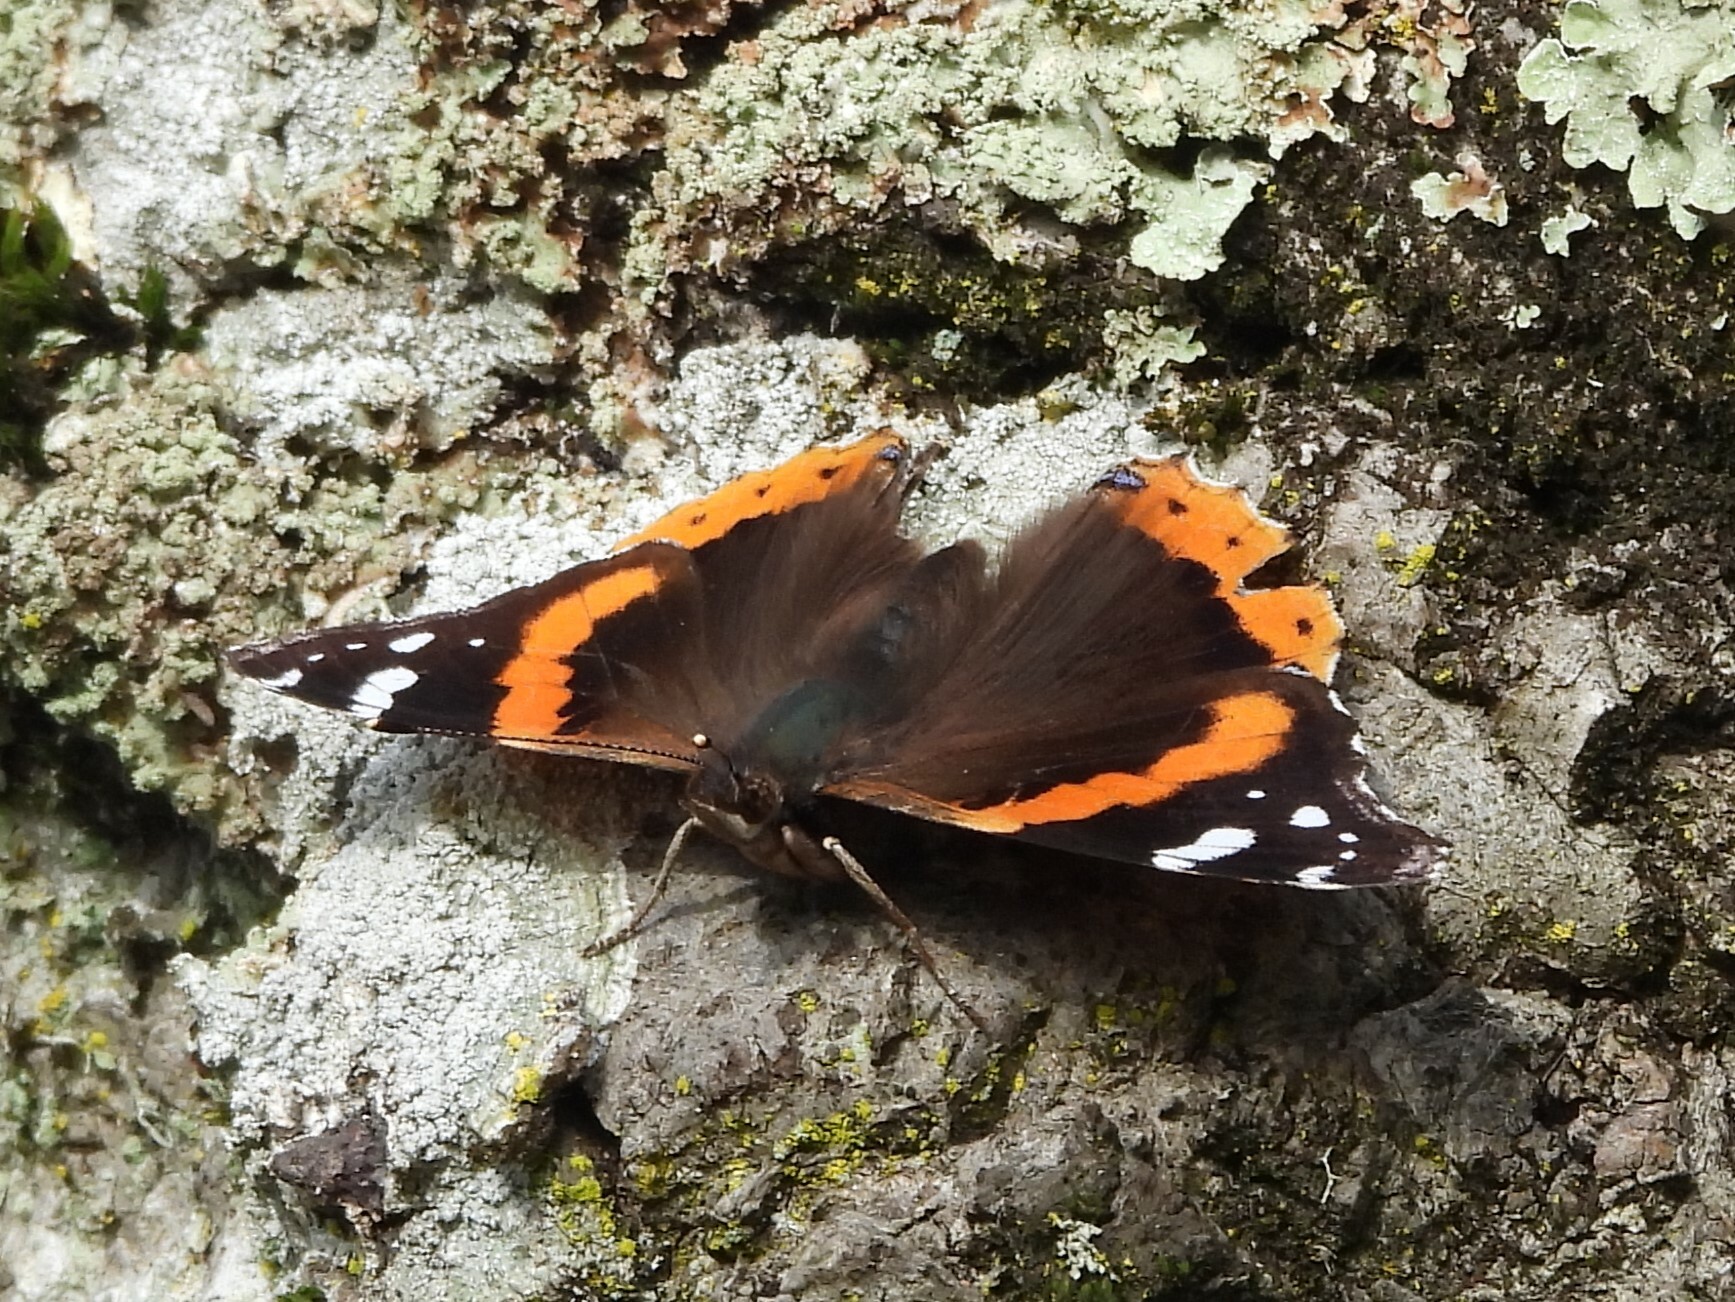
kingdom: Animalia
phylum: Arthropoda
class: Insecta
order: Lepidoptera
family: Nymphalidae
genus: Vanessa
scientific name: Vanessa atalanta
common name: Red admiral
